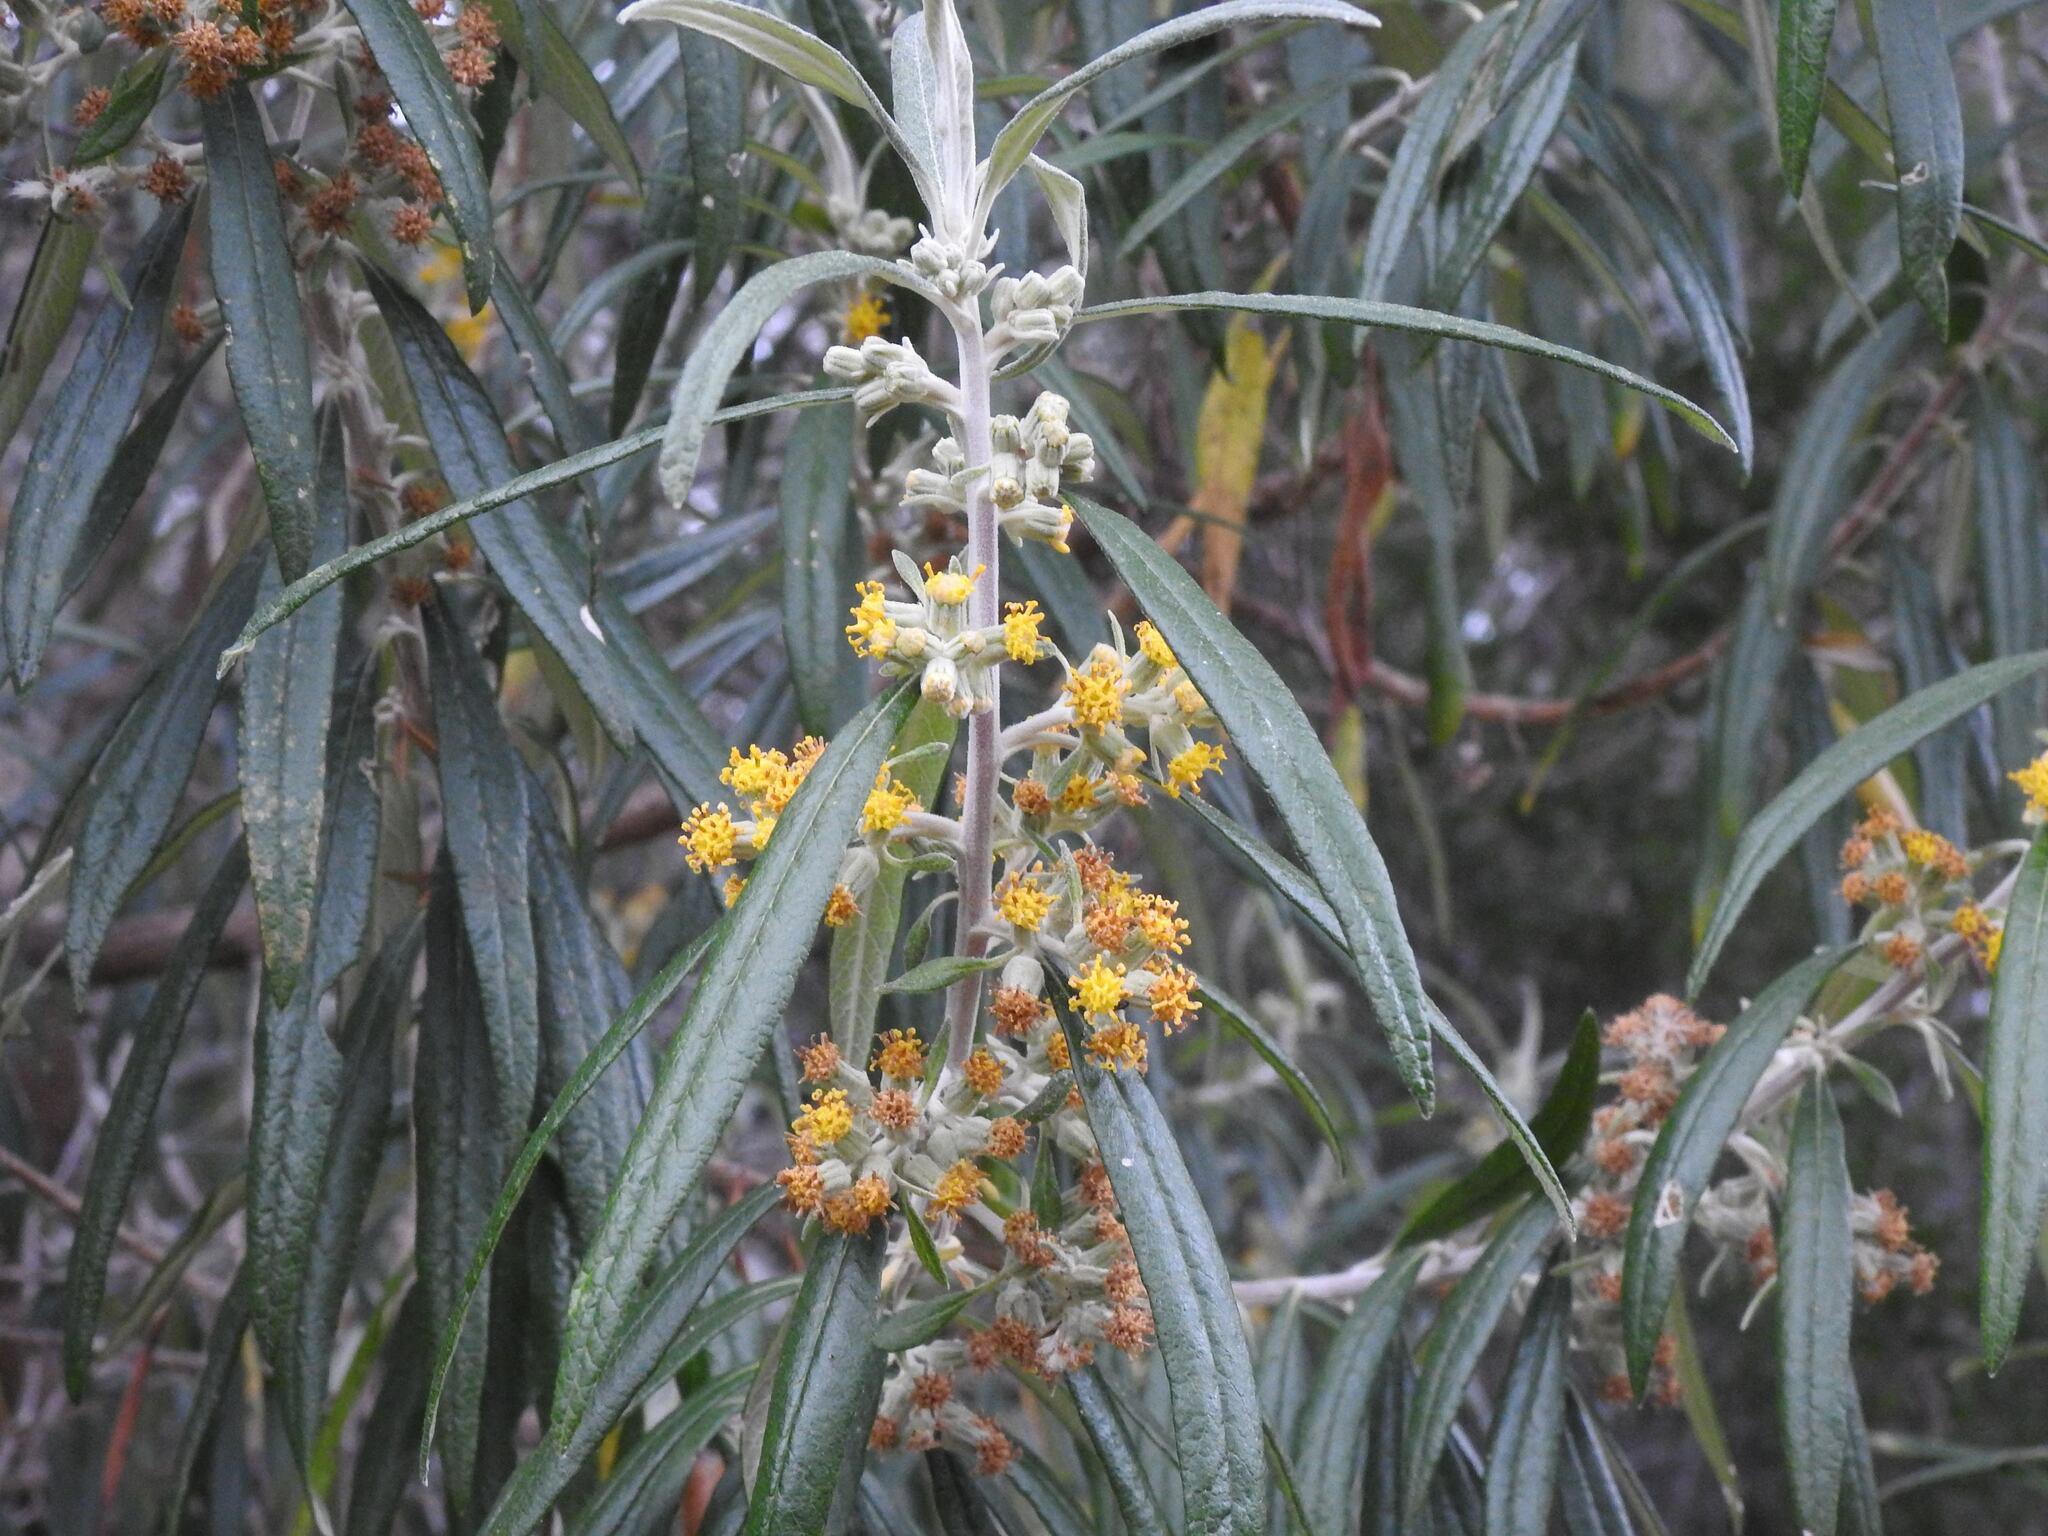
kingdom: Plantae
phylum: Tracheophyta
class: Magnoliopsida
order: Asterales
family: Asteraceae
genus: Bedfordia
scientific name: Bedfordia salicina
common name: Blanketleaf
